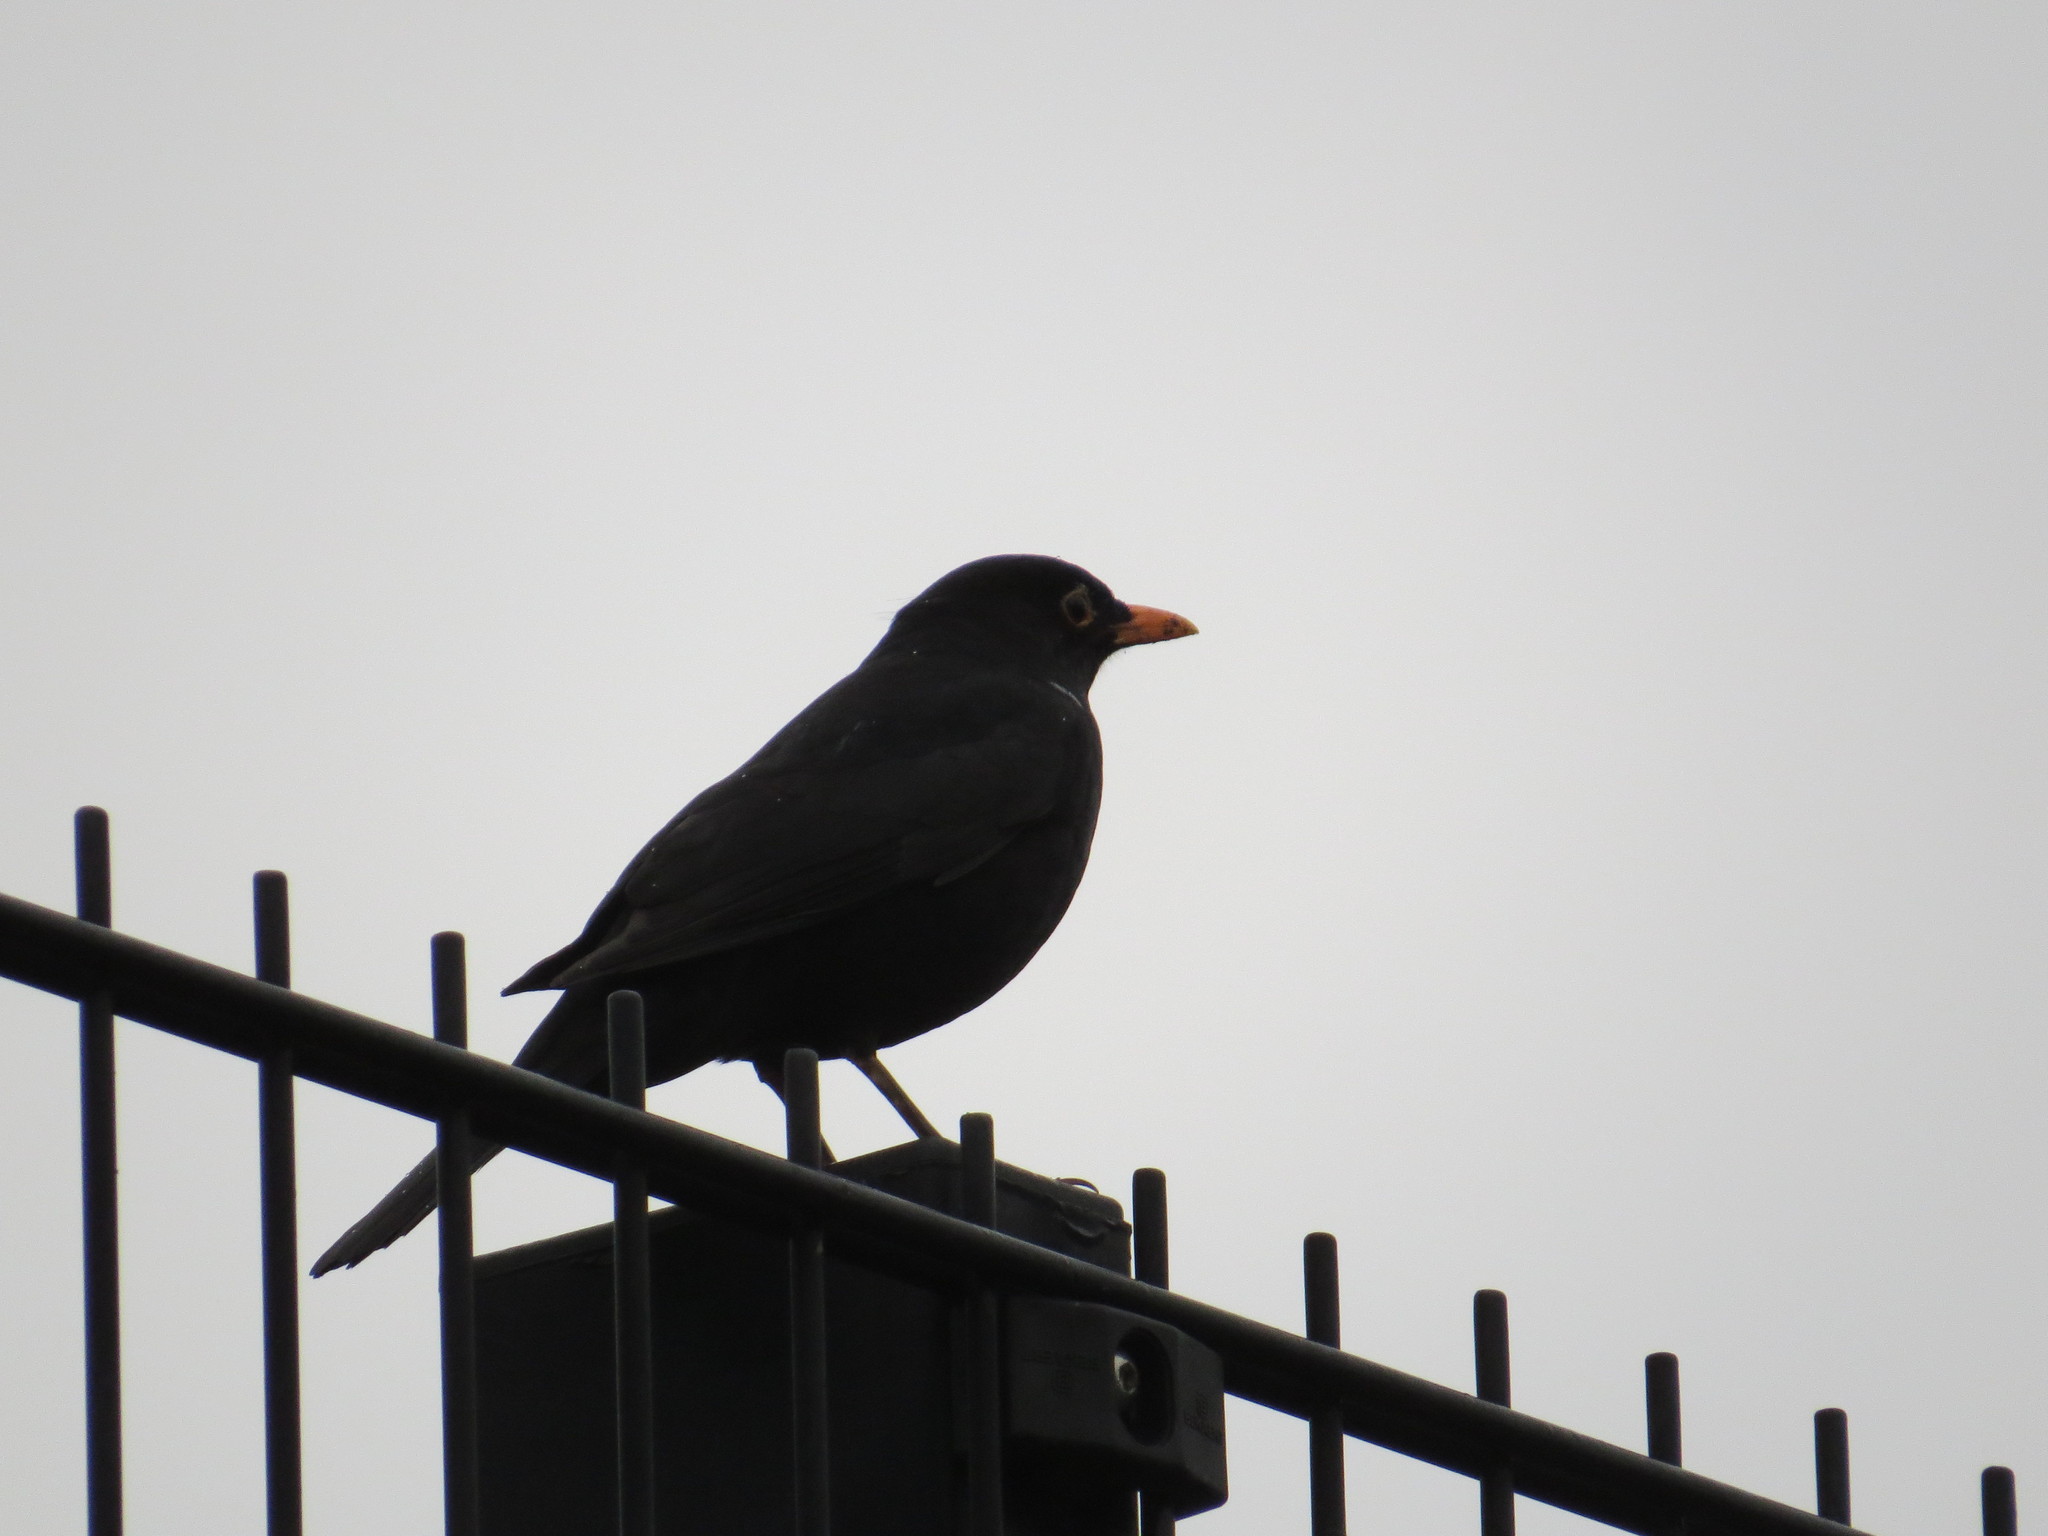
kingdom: Animalia
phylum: Chordata
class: Aves
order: Passeriformes
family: Turdidae
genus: Turdus
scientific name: Turdus merula
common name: Common blackbird
